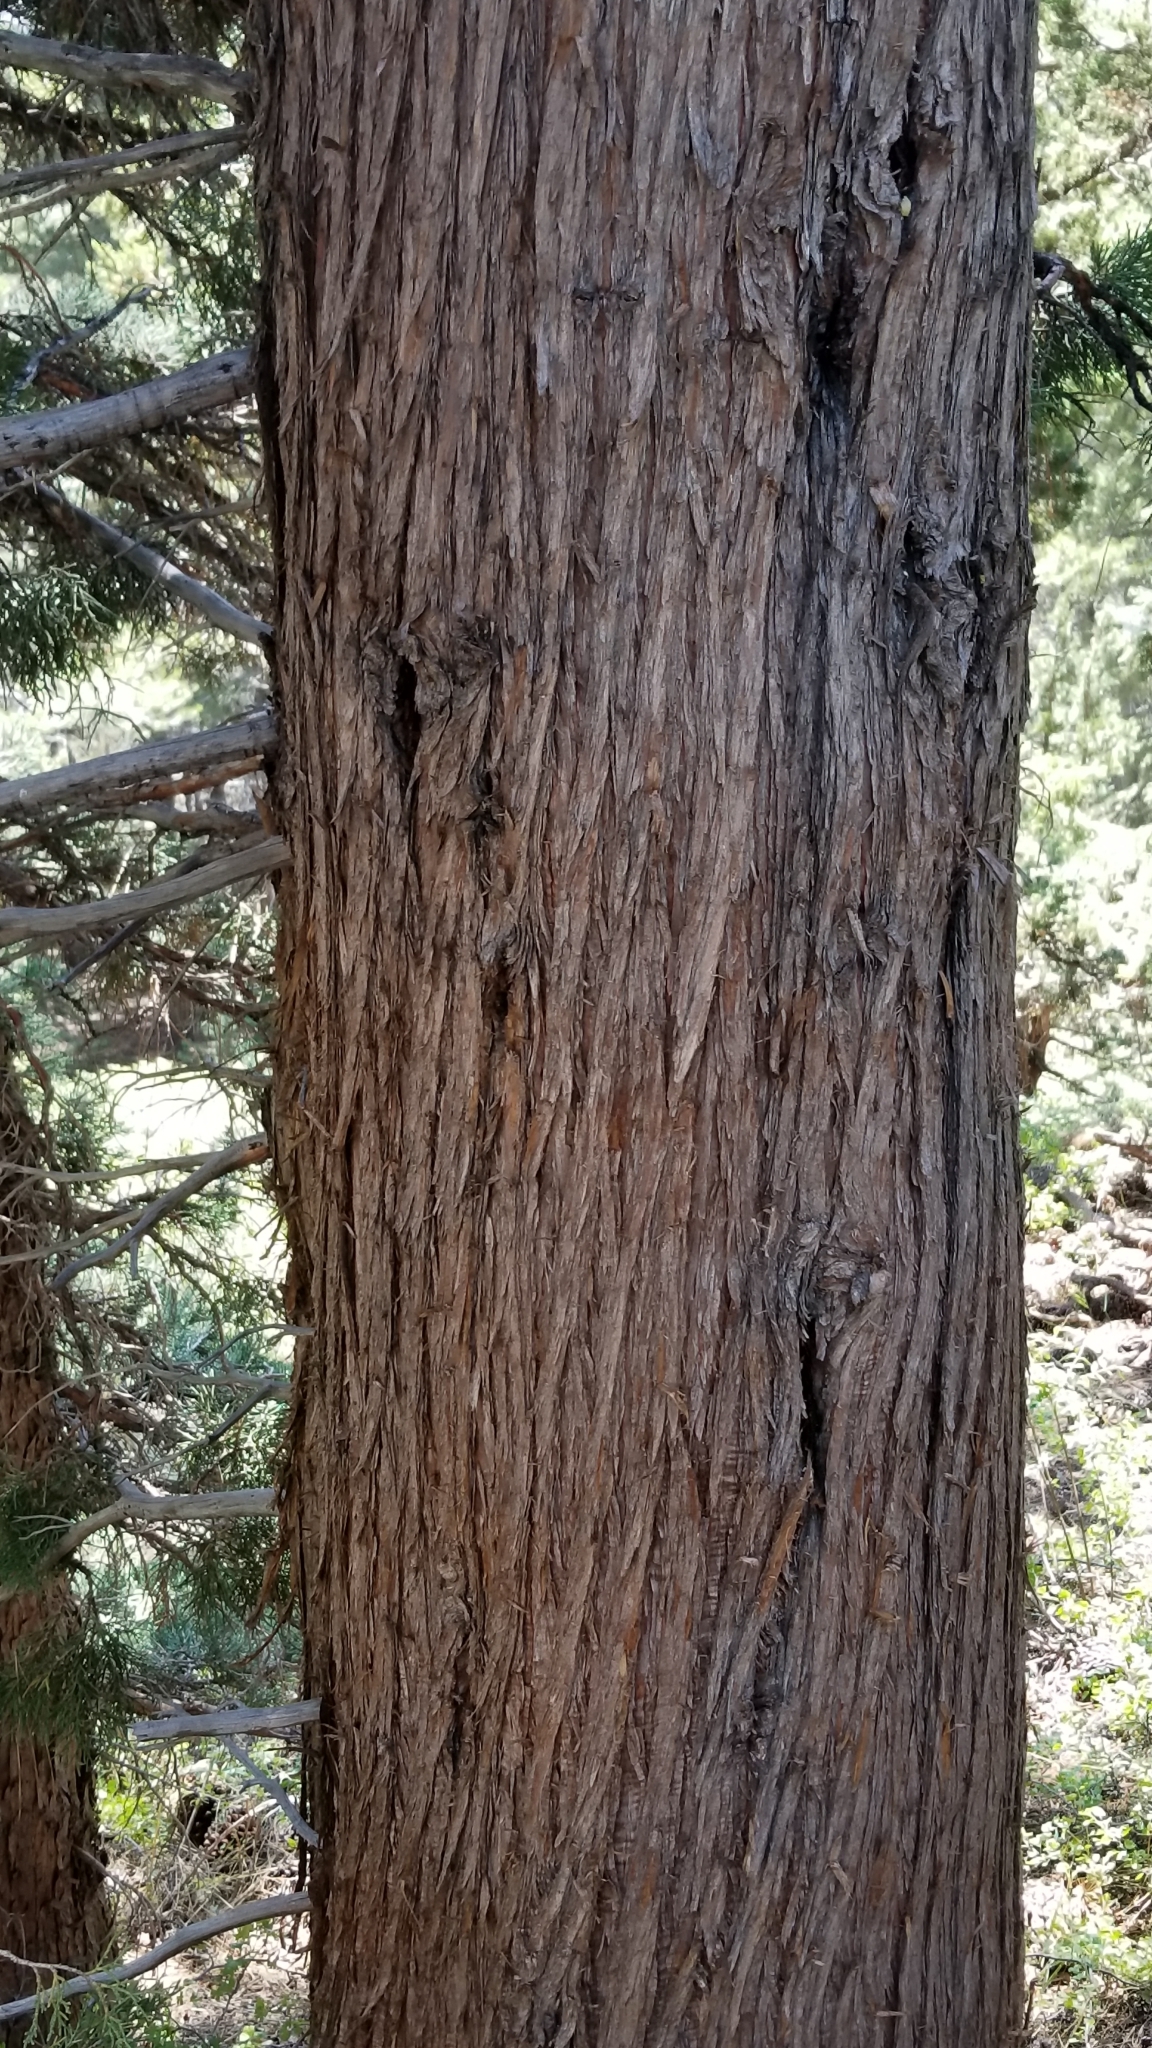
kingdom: Plantae
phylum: Tracheophyta
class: Pinopsida
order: Pinales
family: Cupressaceae
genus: Juniperus
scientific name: Juniperus occidentalis
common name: Western juniper
